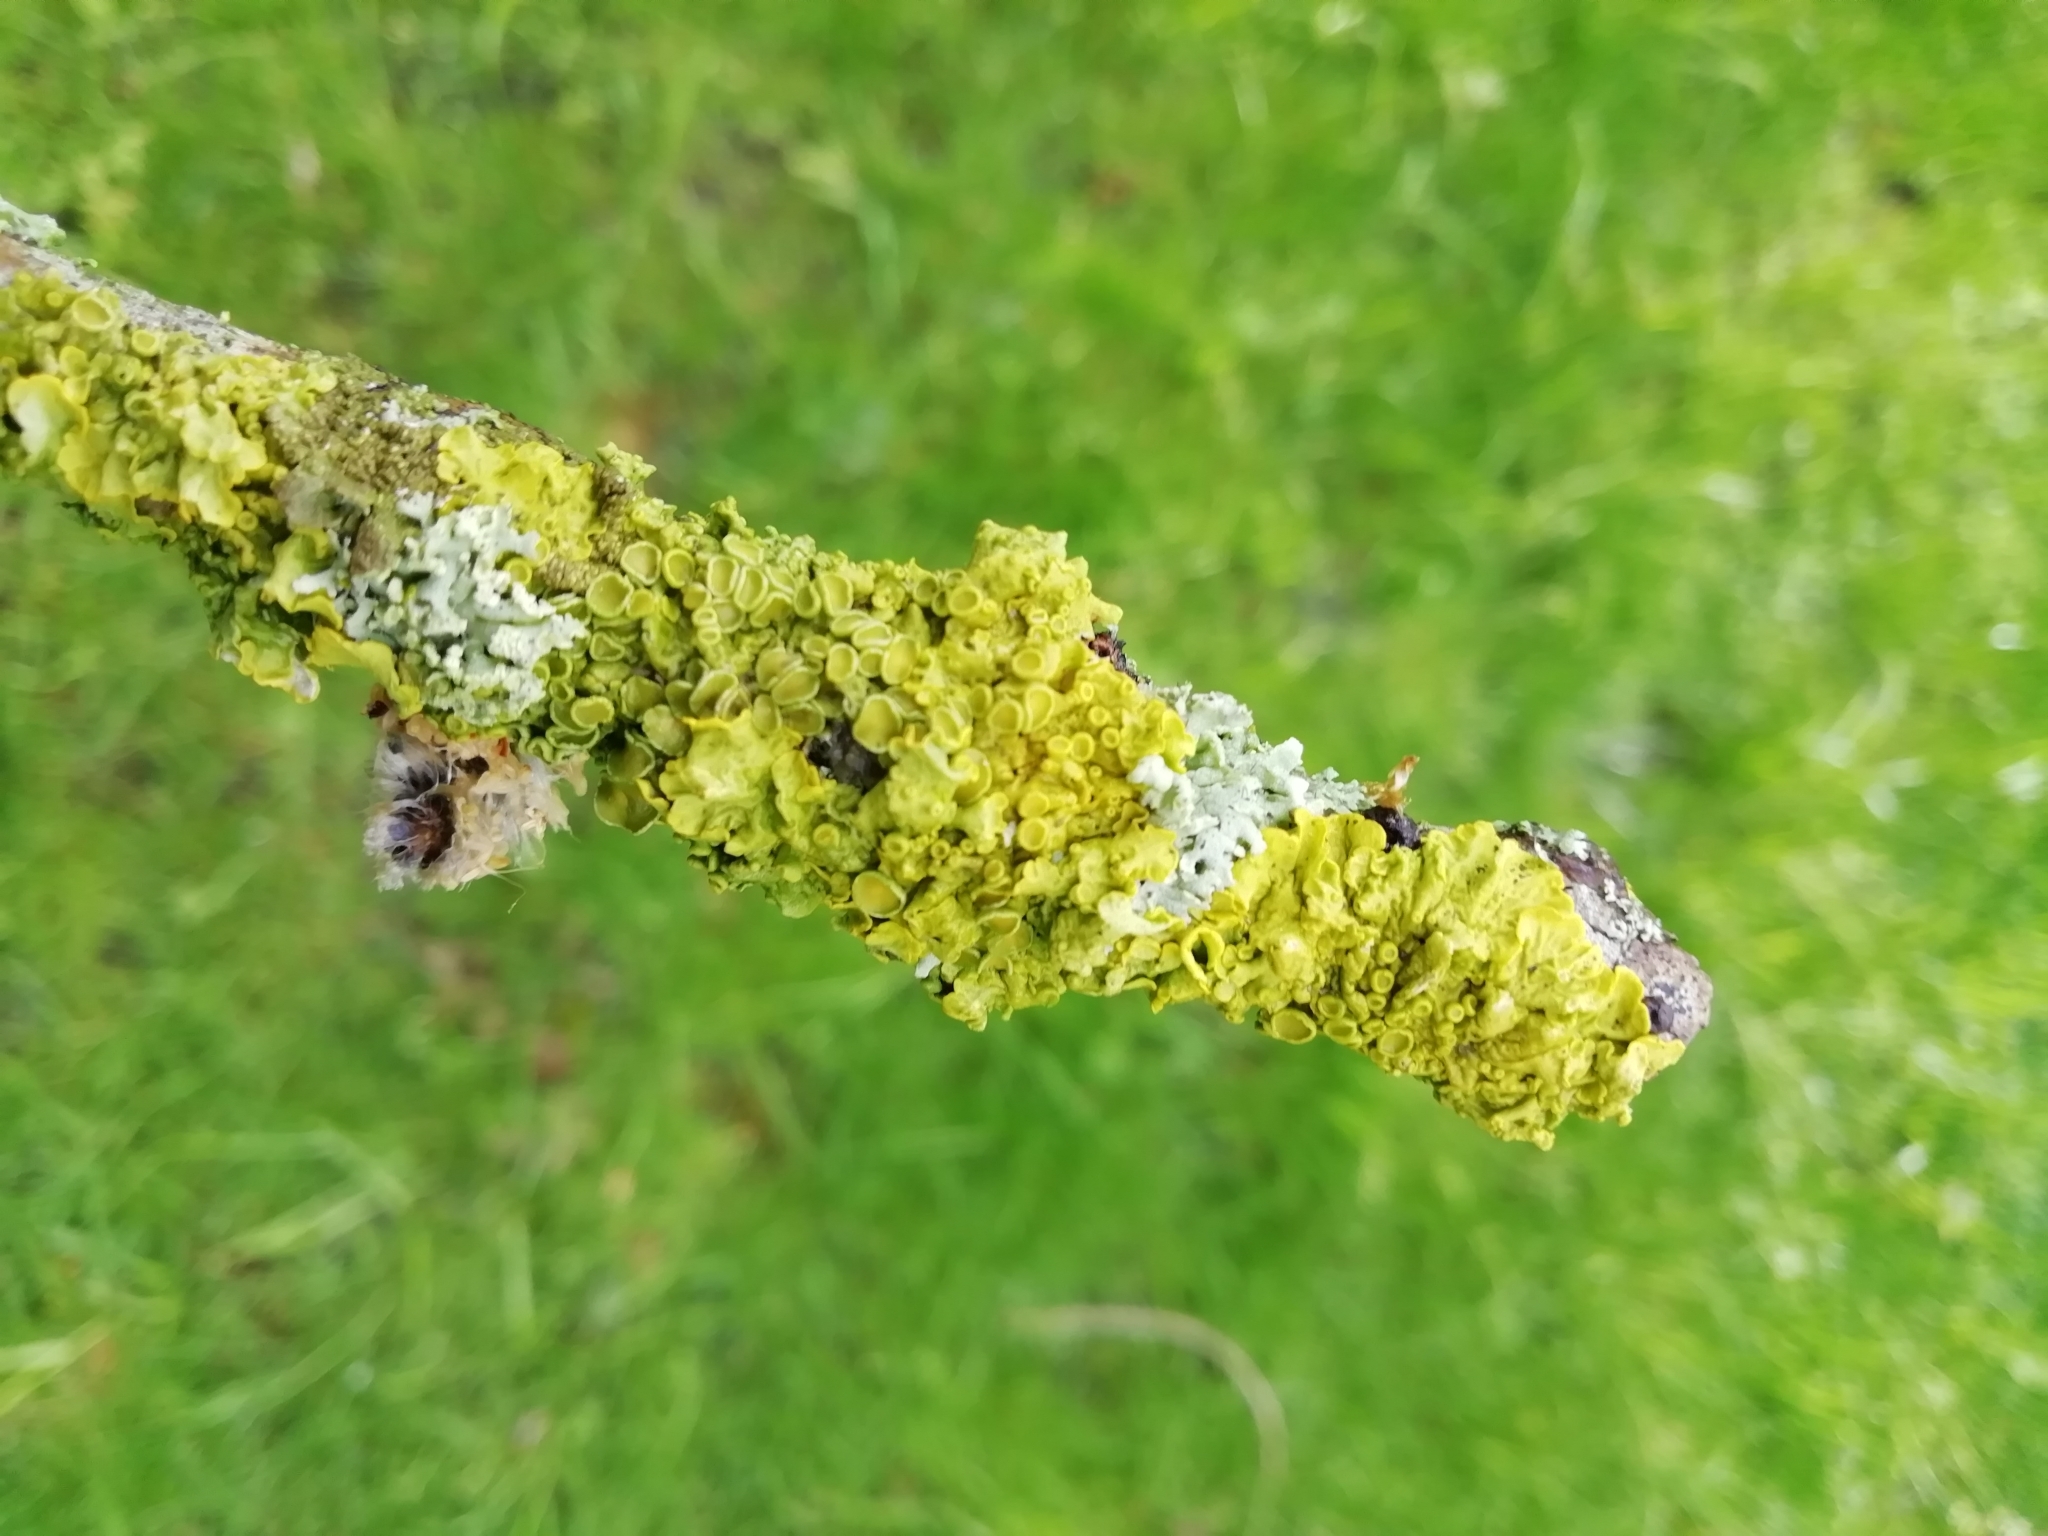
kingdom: Fungi
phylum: Ascomycota
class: Lecanoromycetes
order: Teloschistales
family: Teloschistaceae
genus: Xanthoria
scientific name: Xanthoria parietina
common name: Common orange lichen
